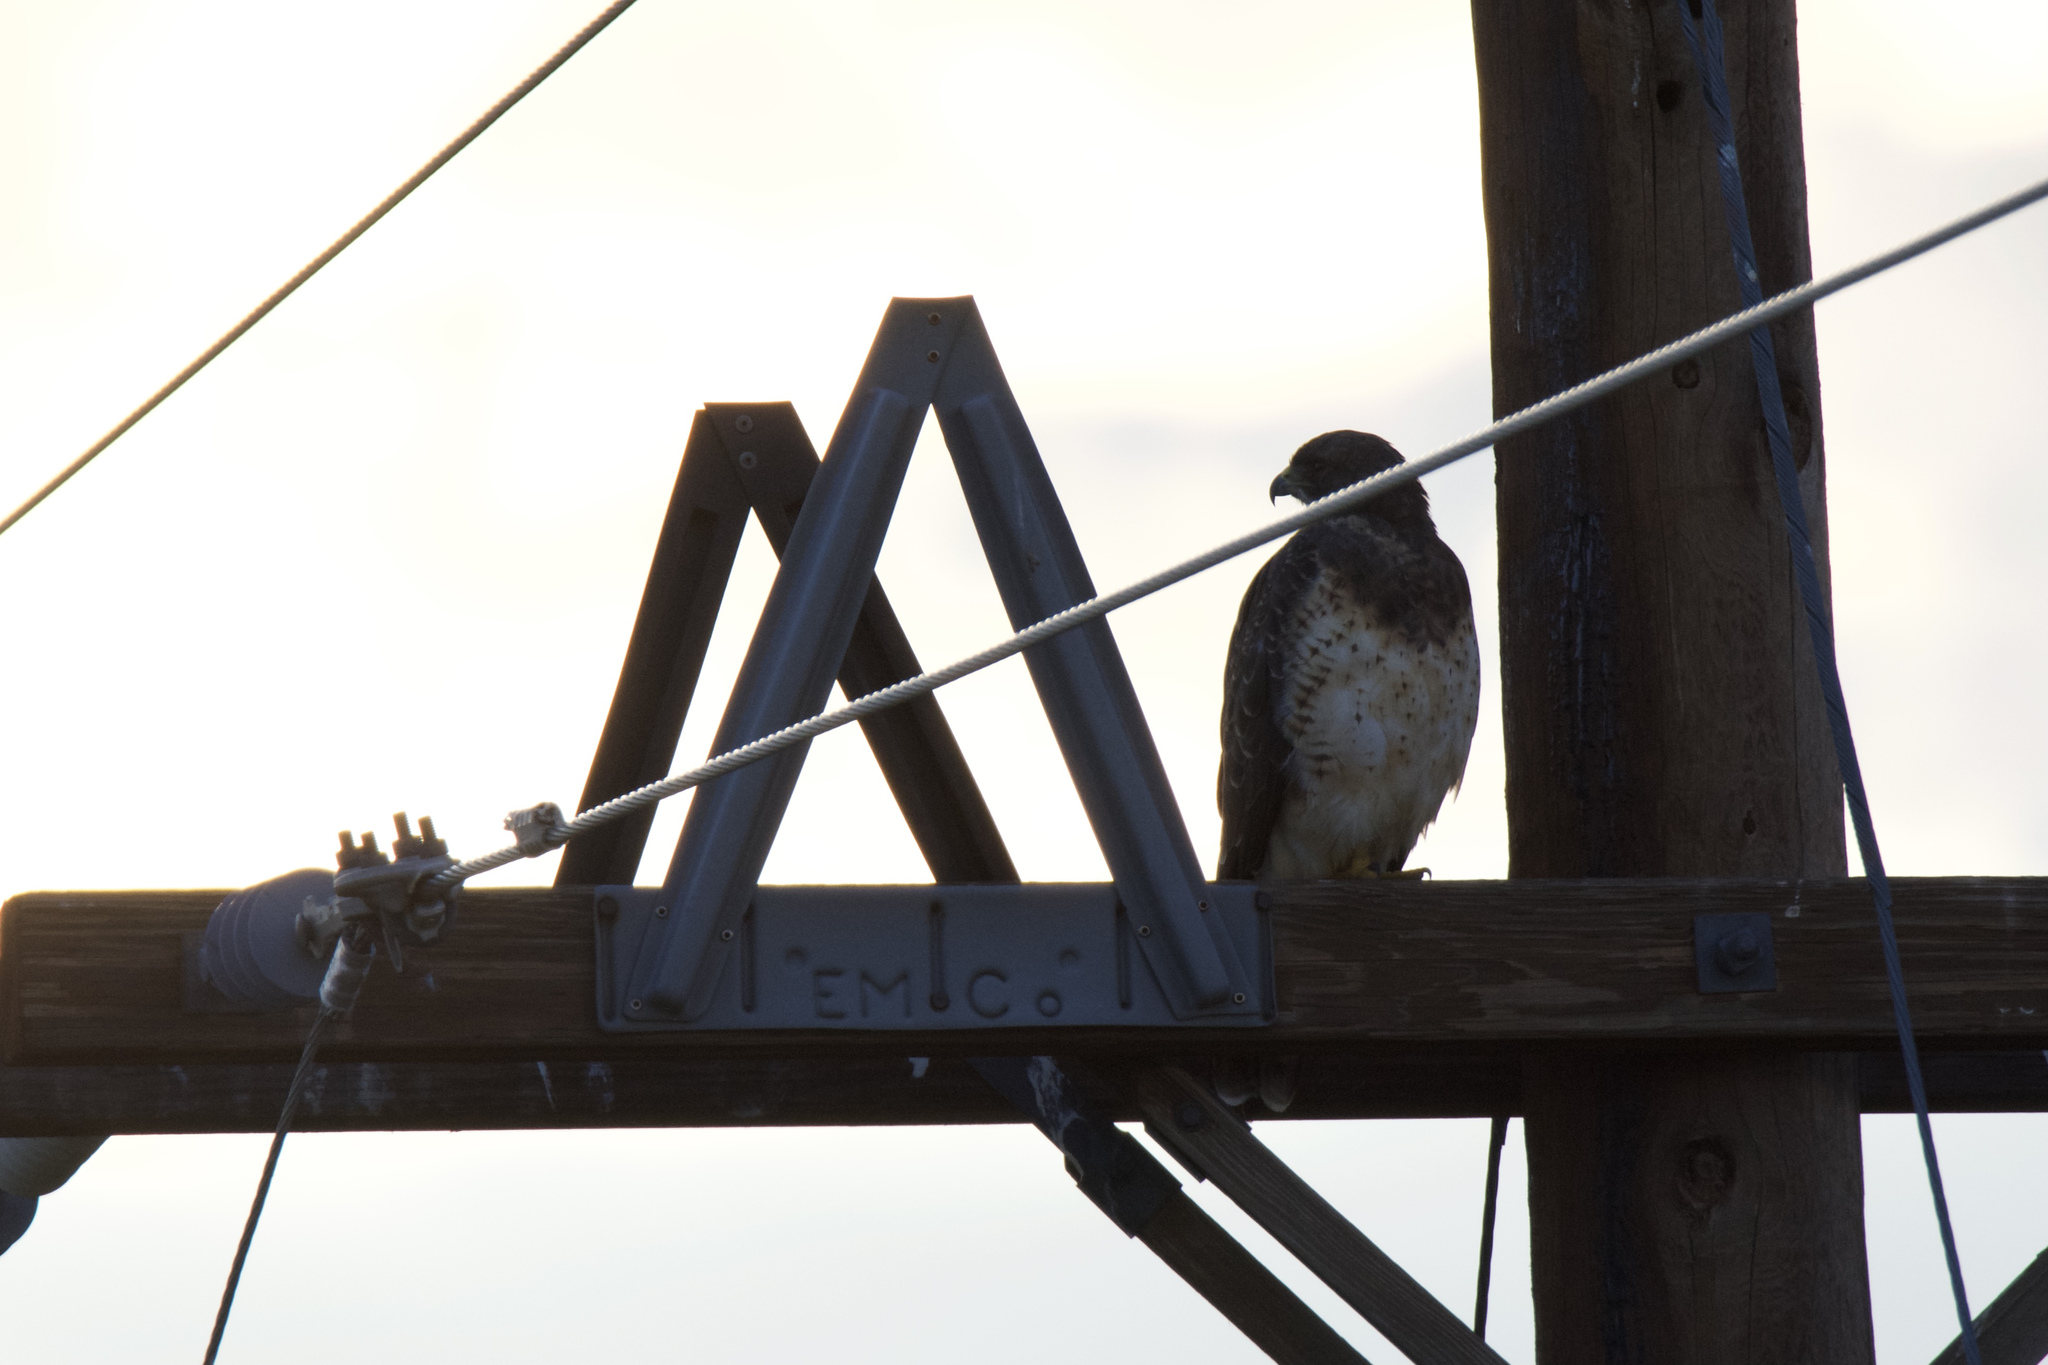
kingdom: Animalia
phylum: Chordata
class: Aves
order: Accipitriformes
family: Accipitridae
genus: Buteo
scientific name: Buteo swainsoni
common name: Swainson's hawk
